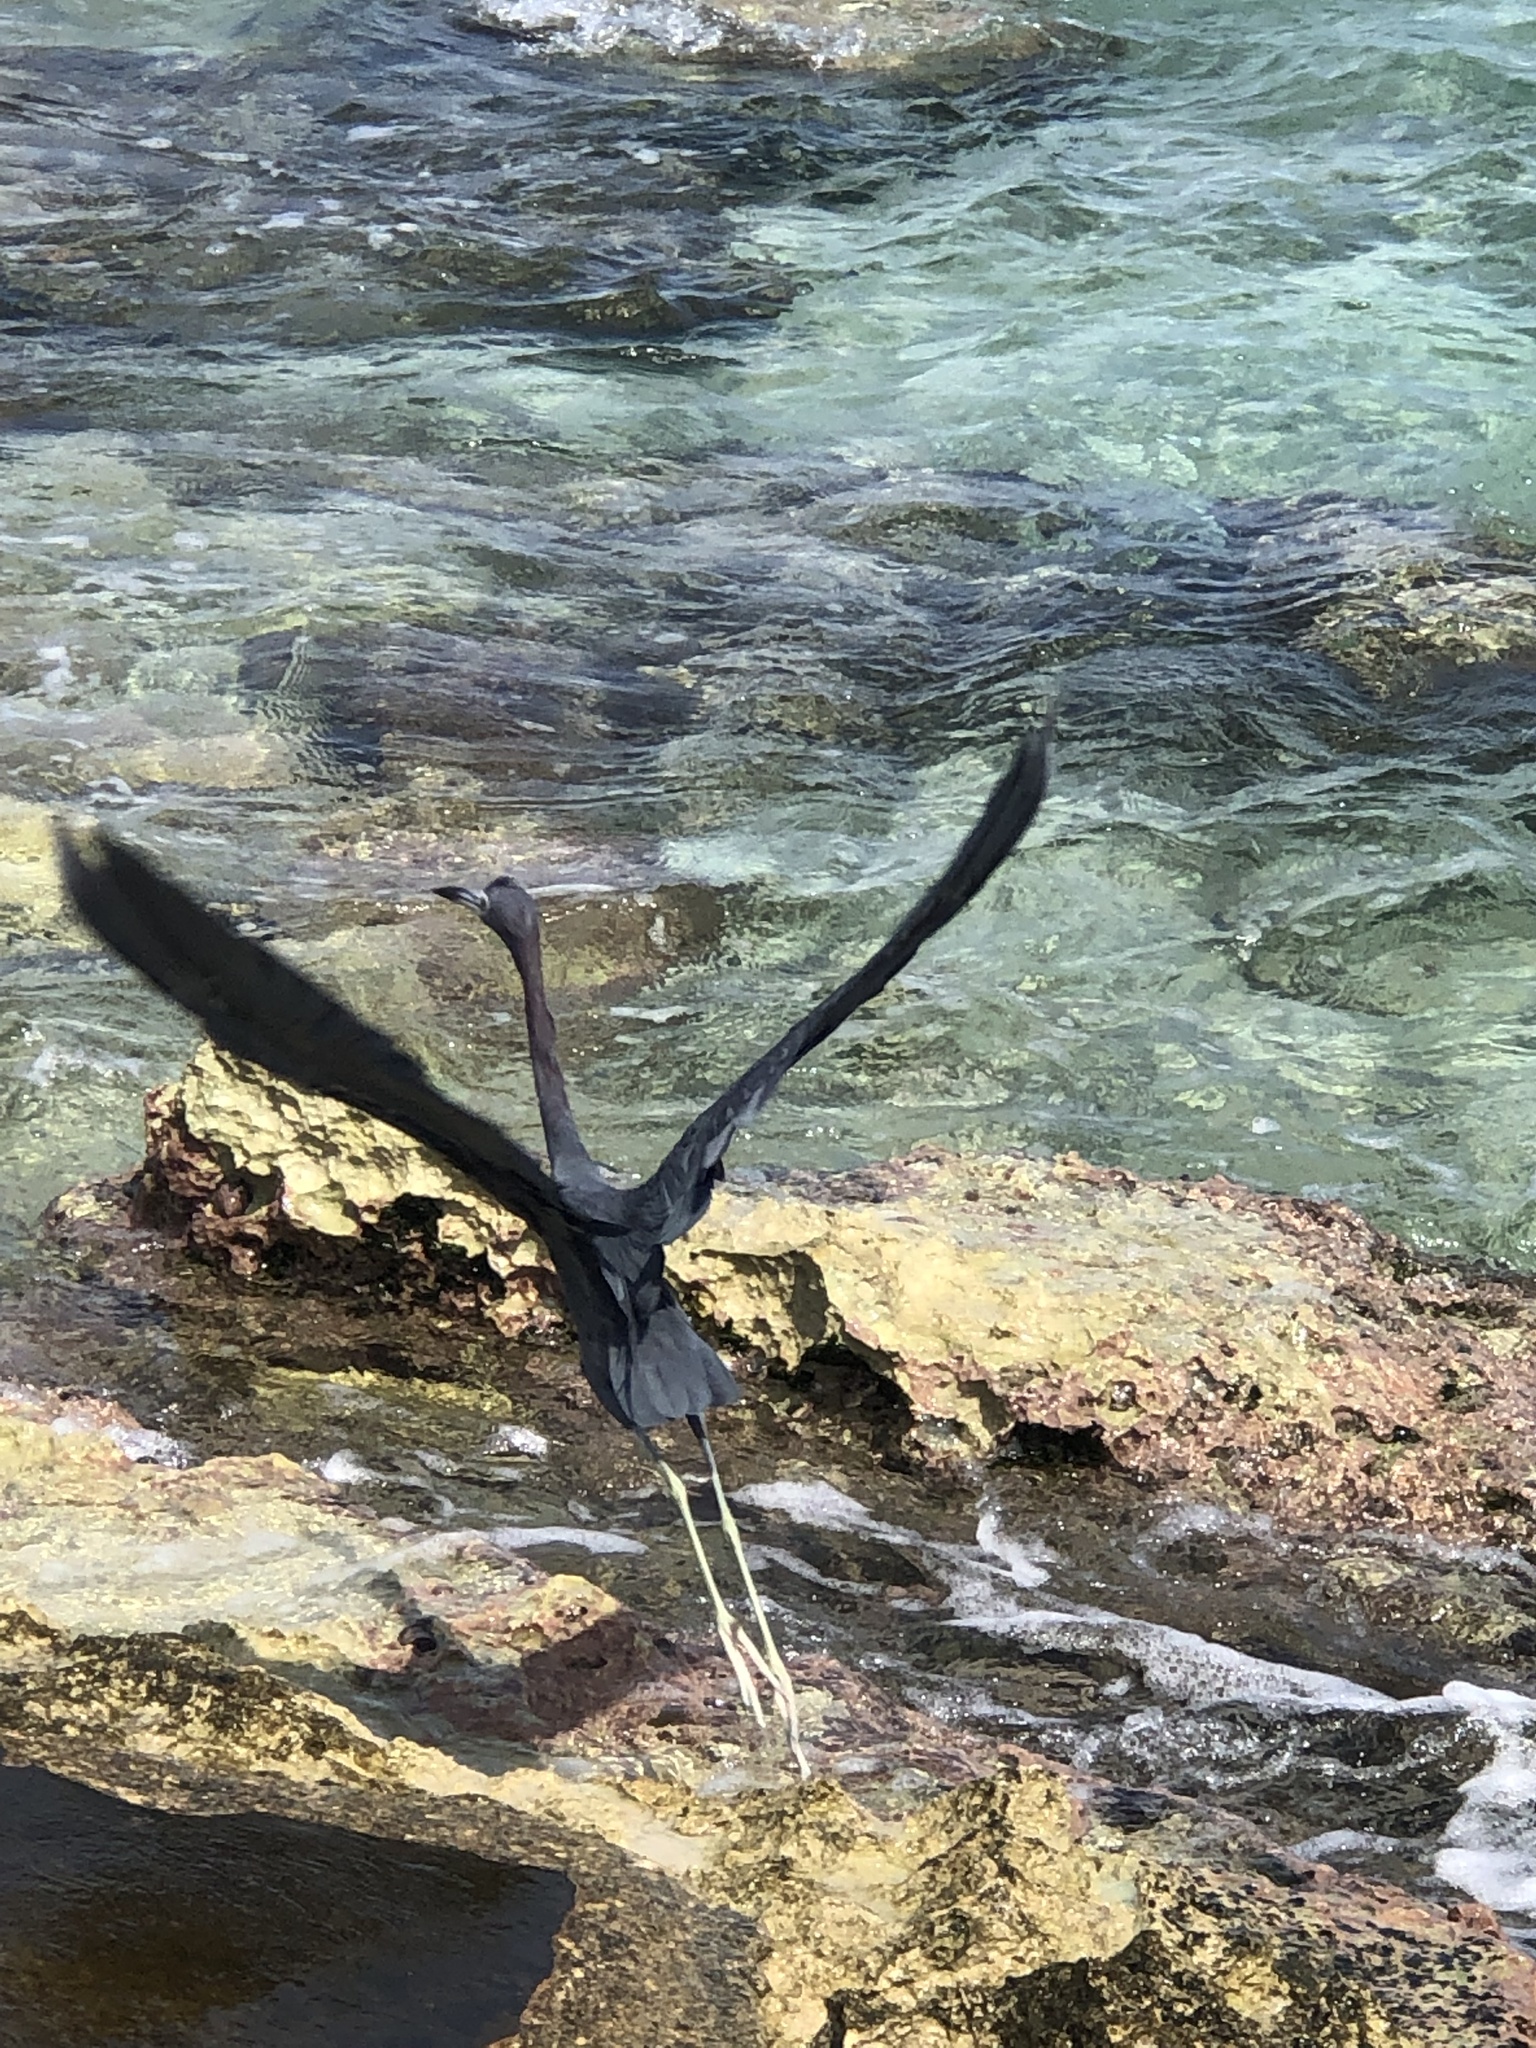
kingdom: Animalia
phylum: Chordata
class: Aves
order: Pelecaniformes
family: Ardeidae
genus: Egretta
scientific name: Egretta caerulea
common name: Little blue heron
